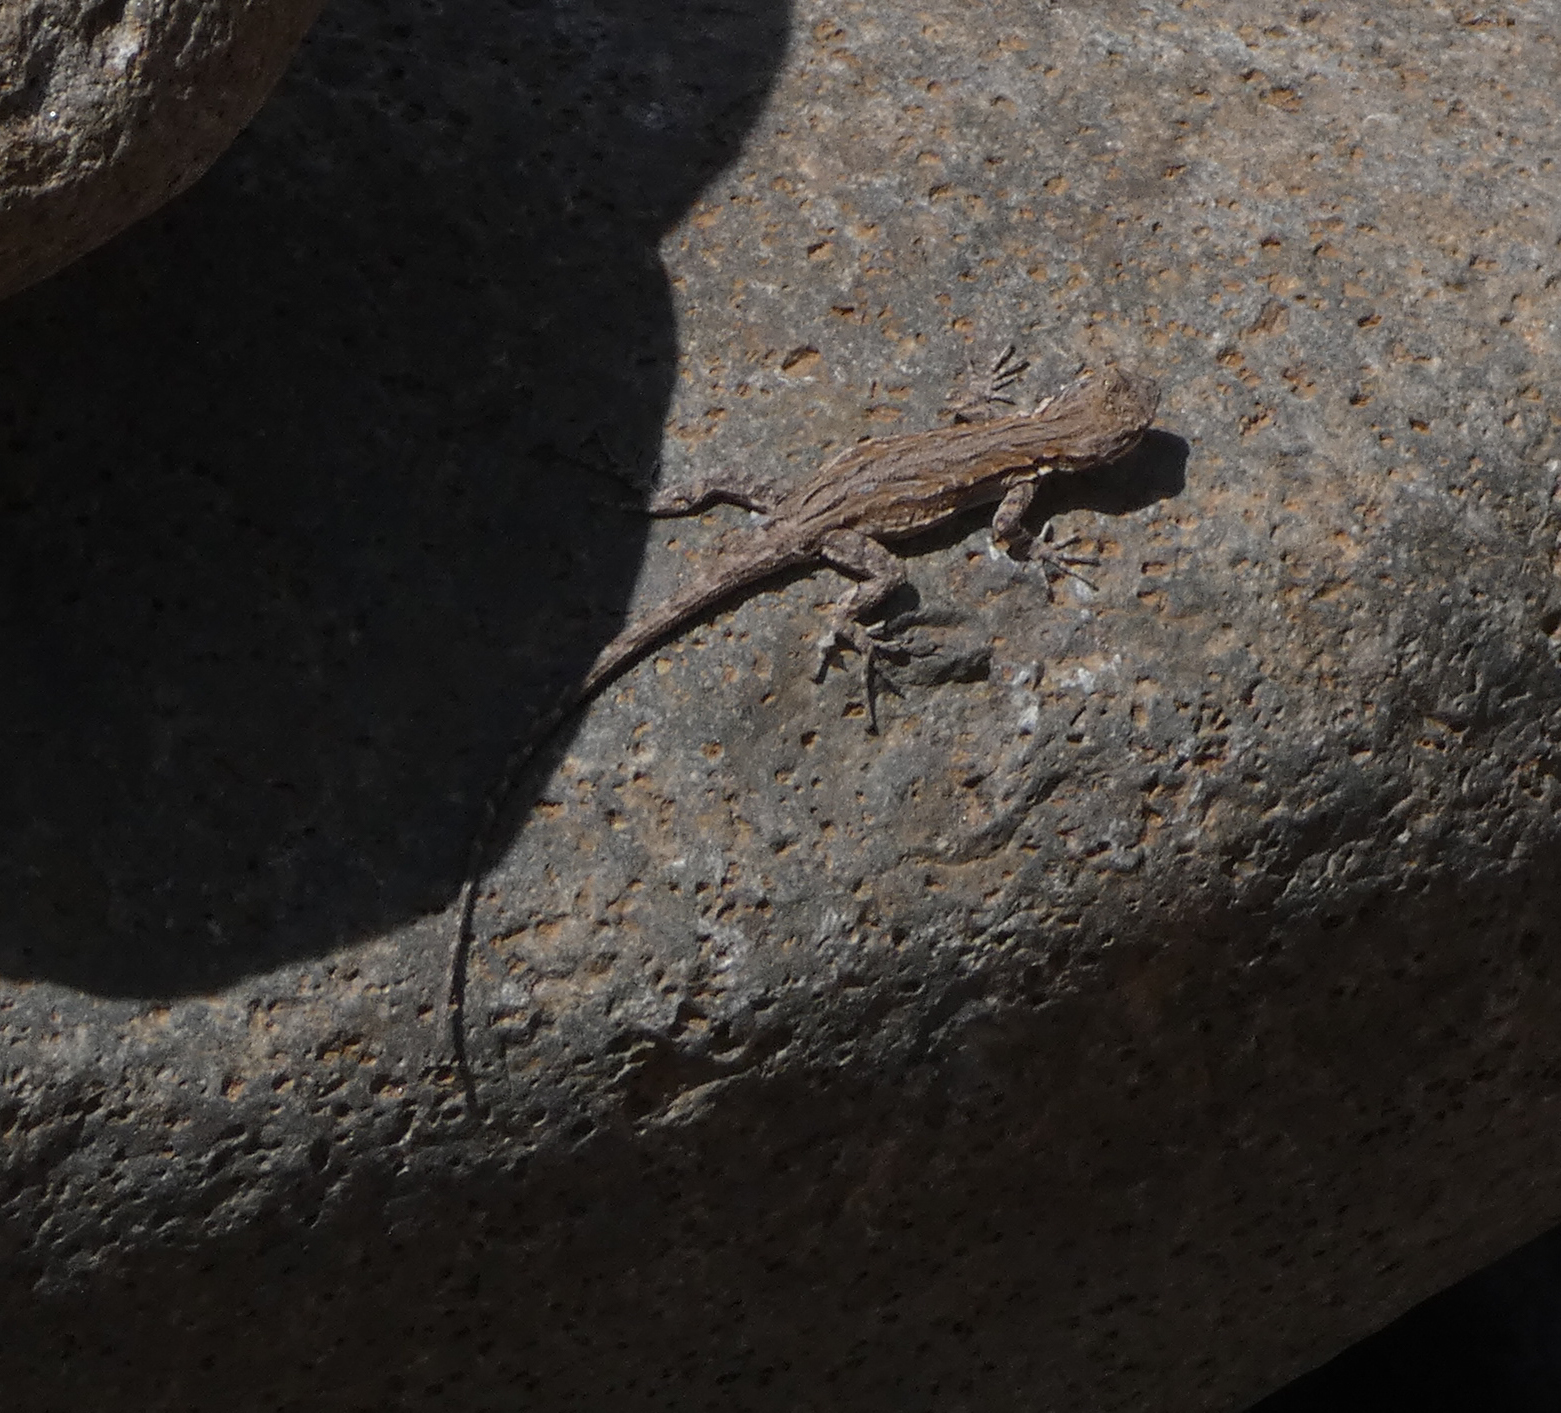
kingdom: Animalia
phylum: Chordata
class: Squamata
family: Phrynosomatidae
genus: Urosaurus
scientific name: Urosaurus ornatus
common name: Ornate tree lizard
